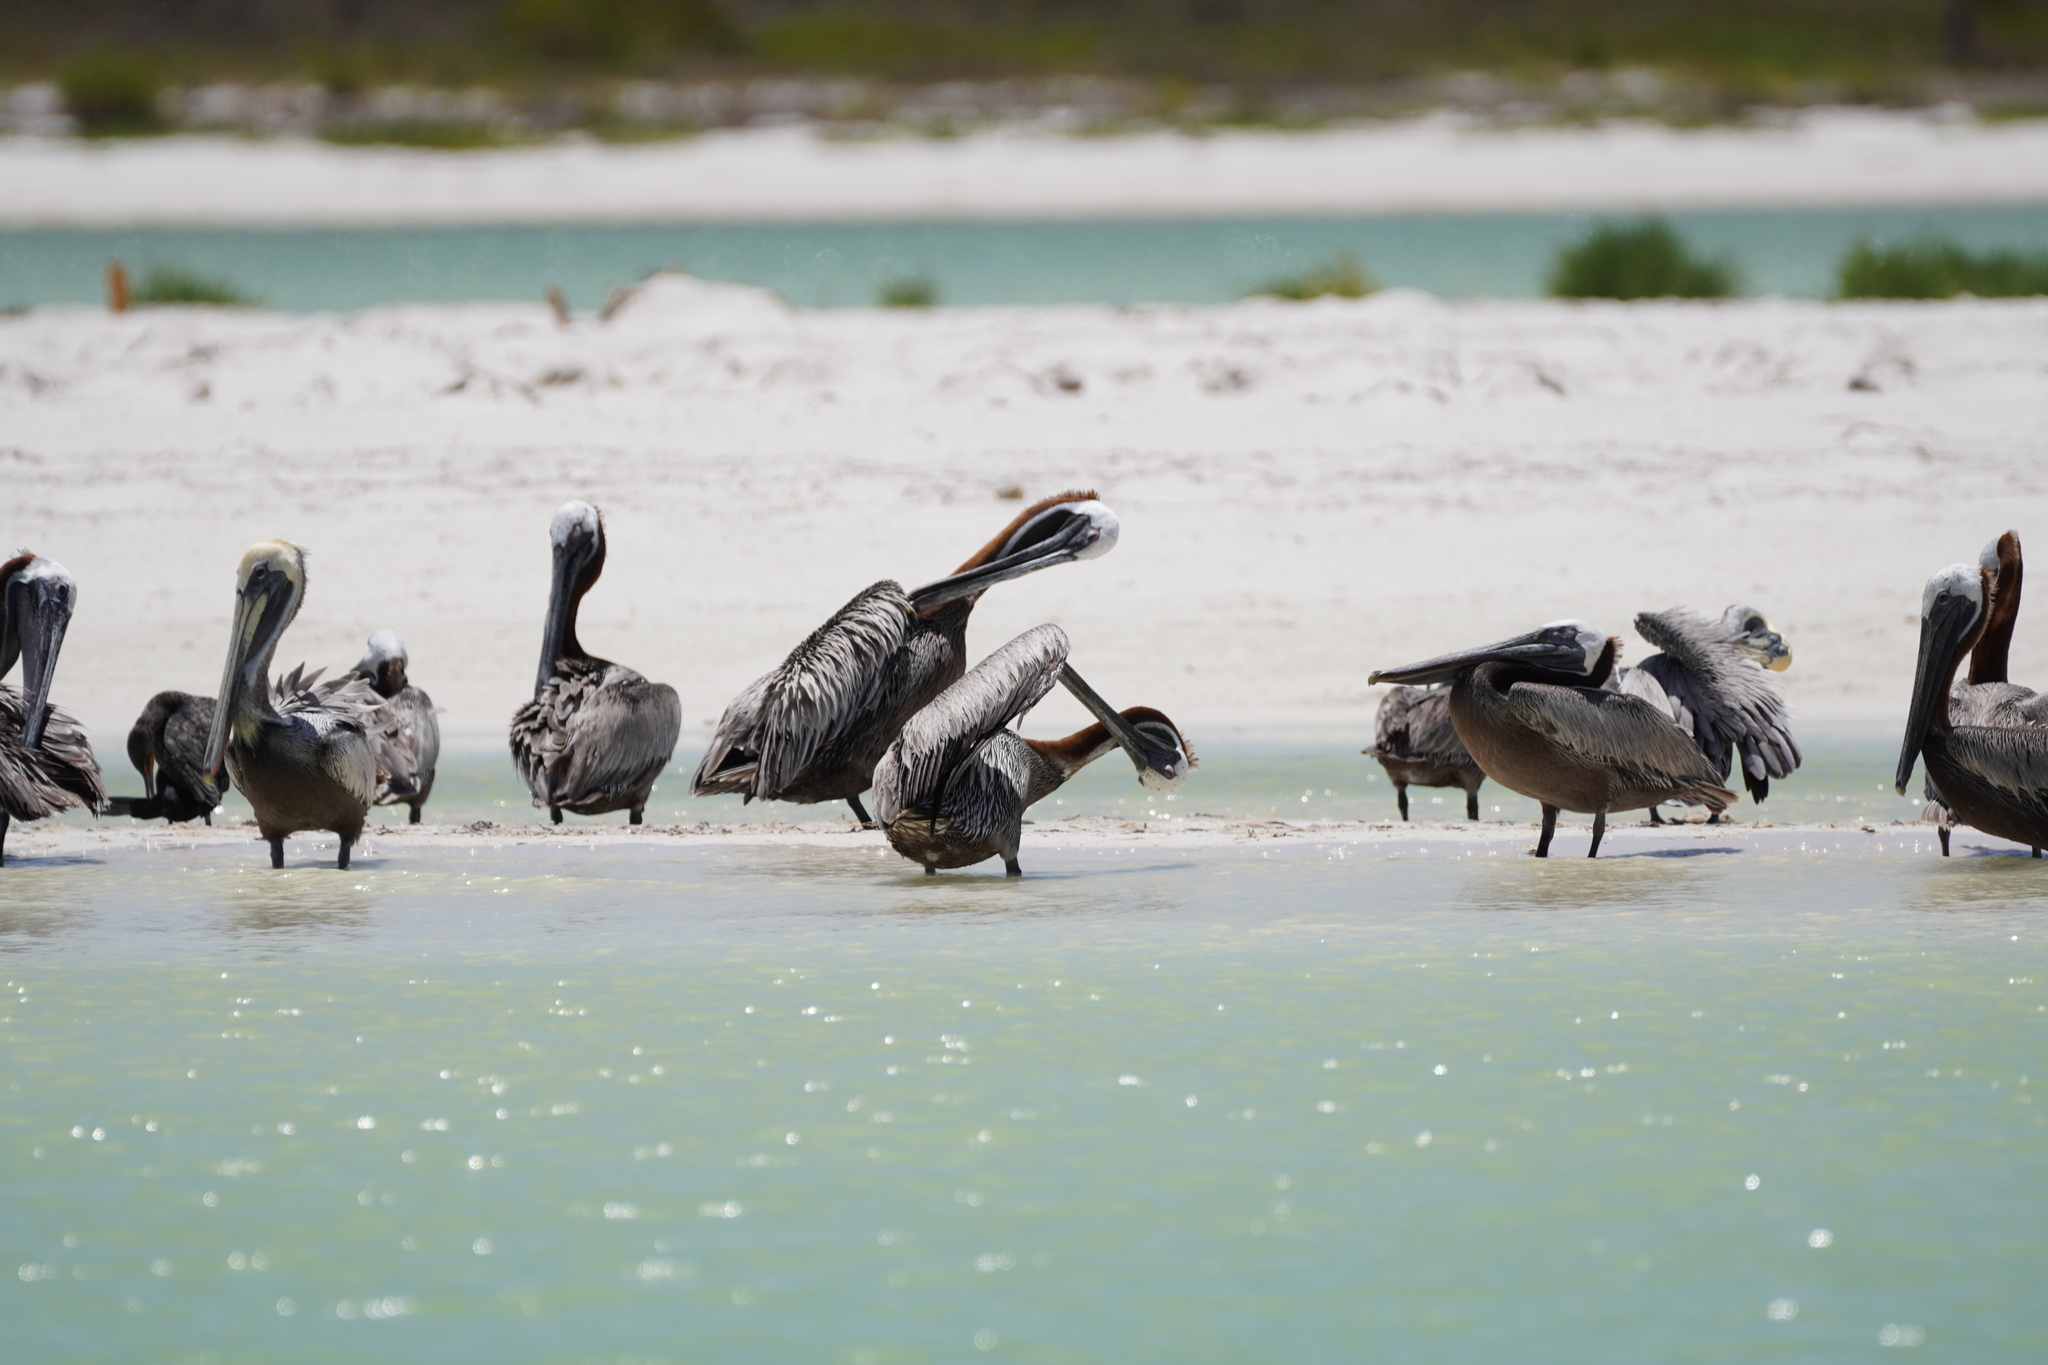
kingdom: Animalia
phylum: Chordata
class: Aves
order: Pelecaniformes
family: Pelecanidae
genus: Pelecanus
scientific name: Pelecanus occidentalis
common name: Brown pelican
